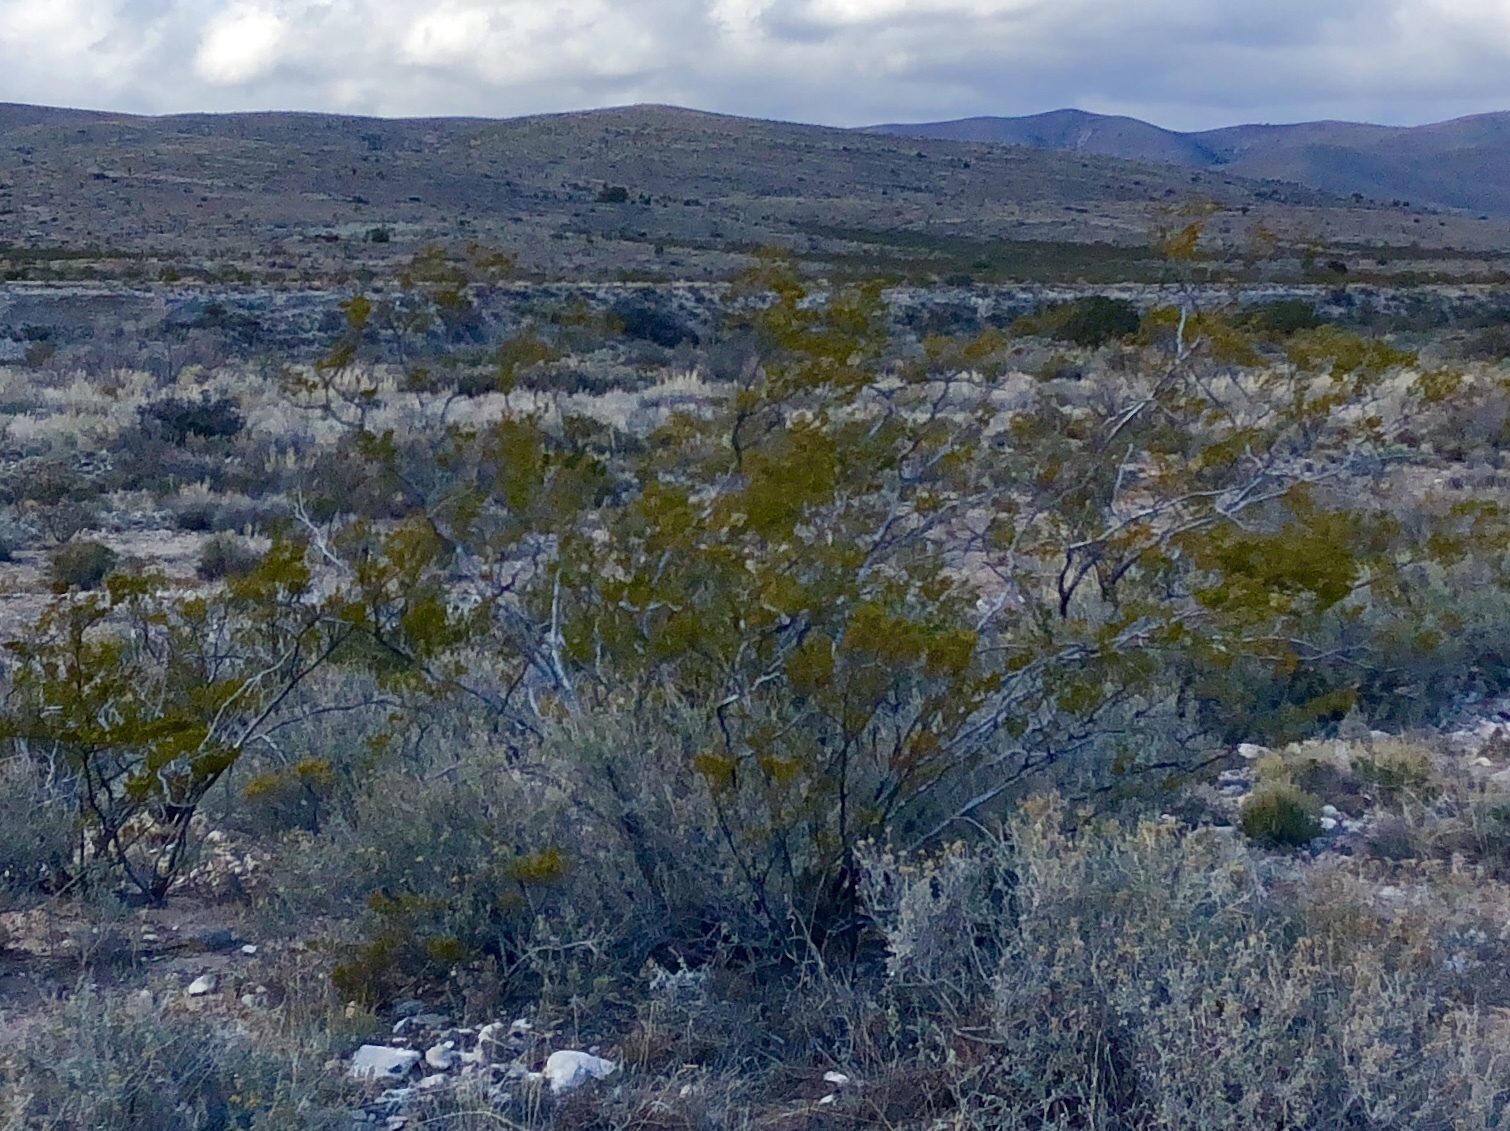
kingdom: Plantae
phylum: Tracheophyta
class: Magnoliopsida
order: Zygophyllales
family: Zygophyllaceae
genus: Larrea
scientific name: Larrea tridentata
